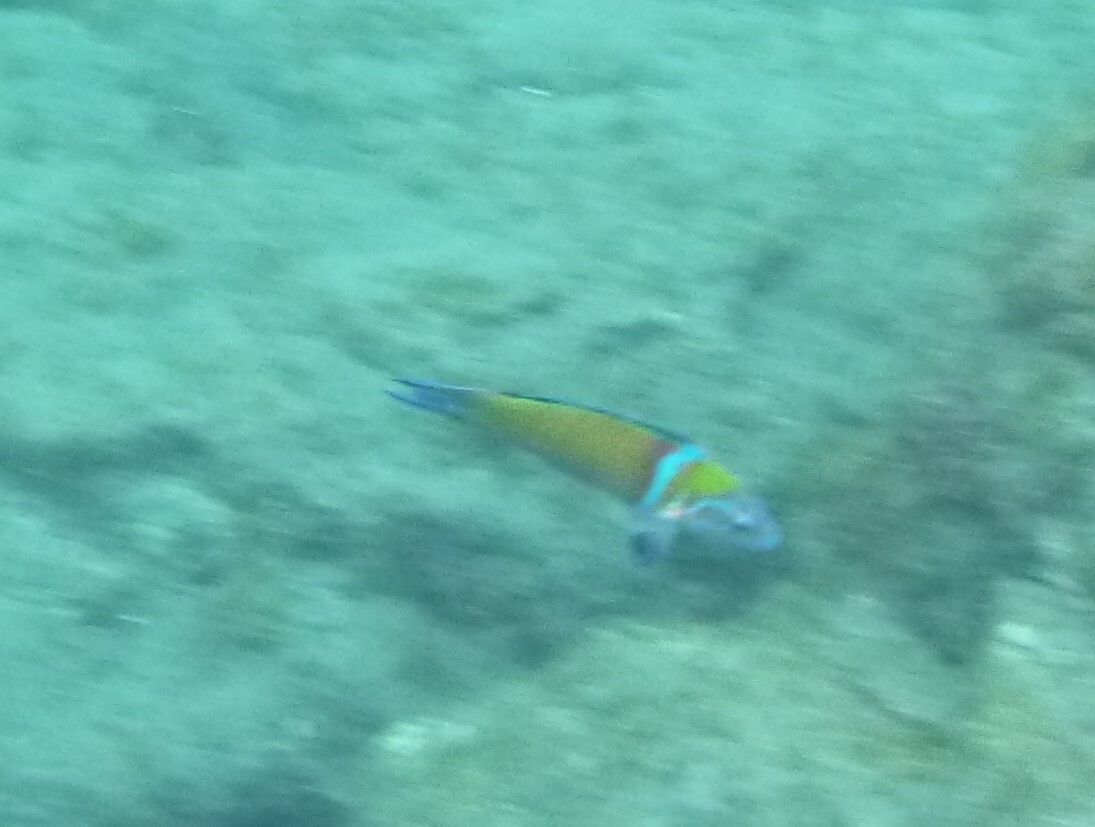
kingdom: Animalia
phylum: Chordata
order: Perciformes
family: Labridae
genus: Thalassoma
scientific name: Thalassoma pavo
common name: Ornate wrasse
